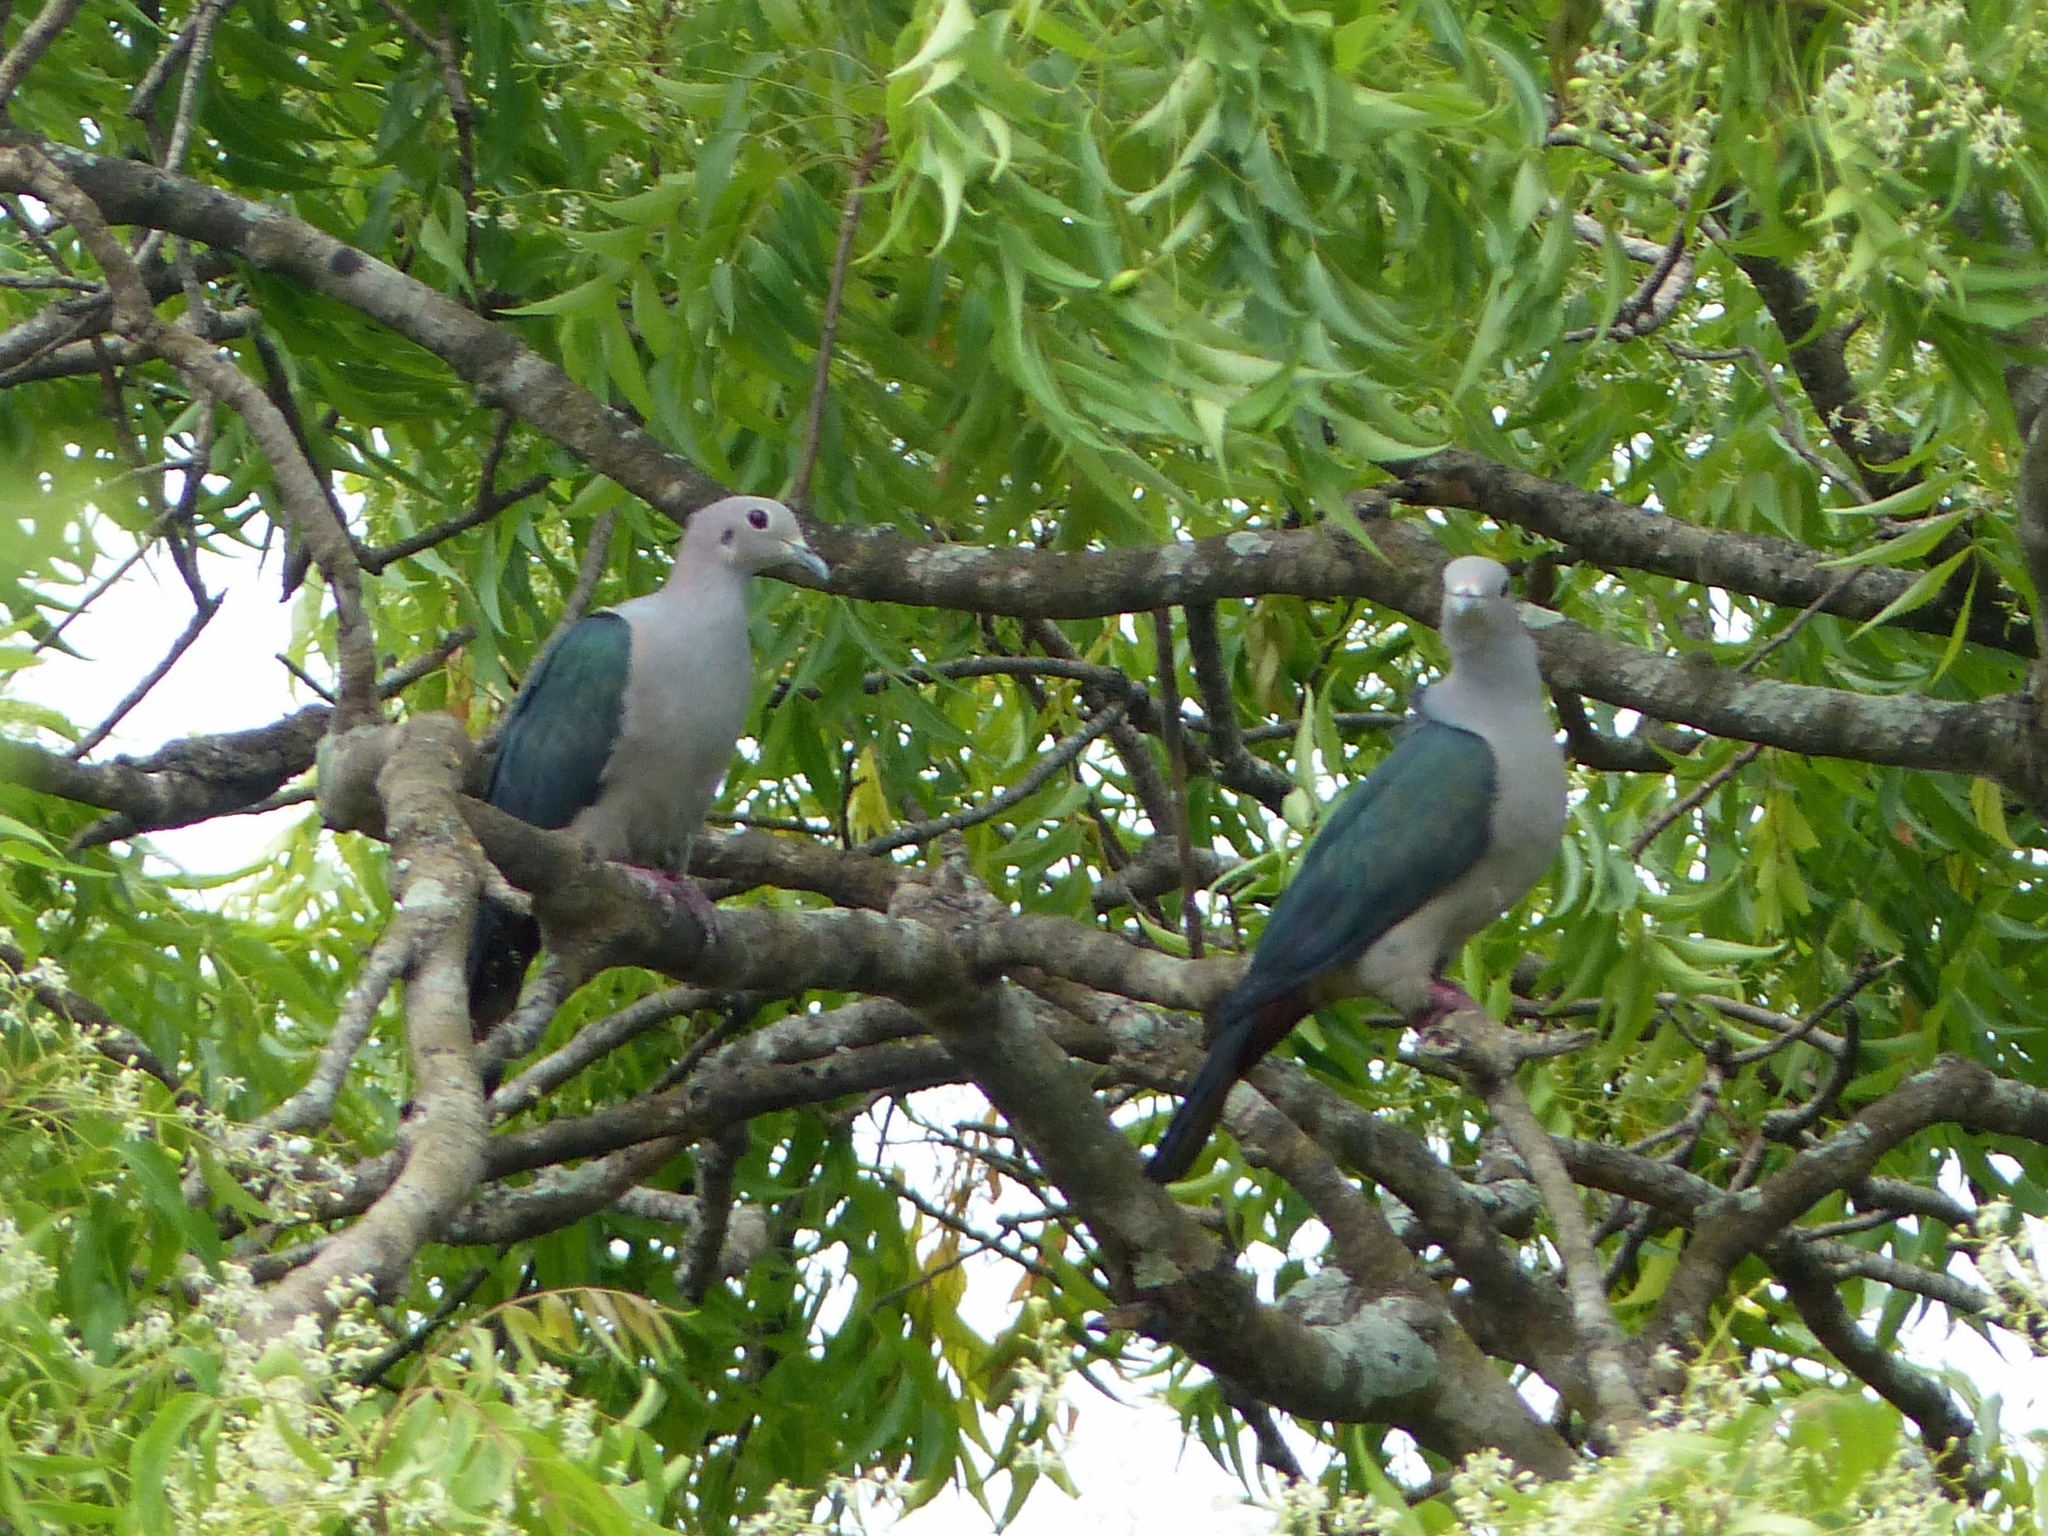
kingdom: Animalia
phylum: Chordata
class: Aves
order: Columbiformes
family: Columbidae
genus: Ducula
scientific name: Ducula aenea
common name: Green imperial pigeon
